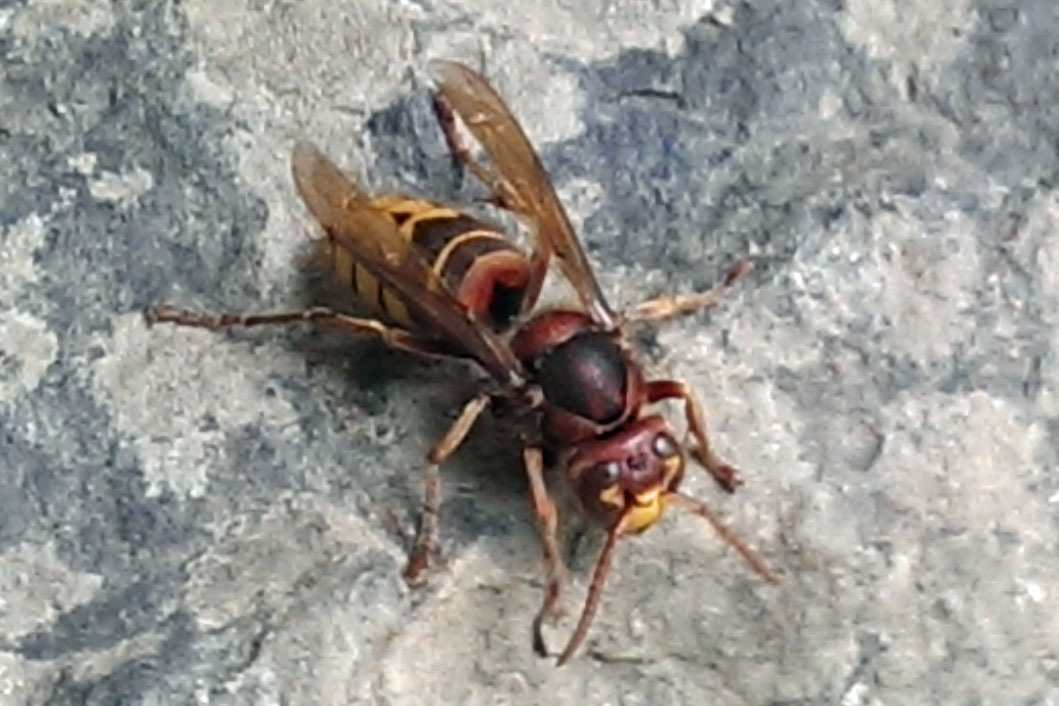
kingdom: Animalia
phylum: Arthropoda
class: Insecta
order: Hymenoptera
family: Vespidae
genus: Vespa
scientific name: Vespa crabro
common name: Hornet
